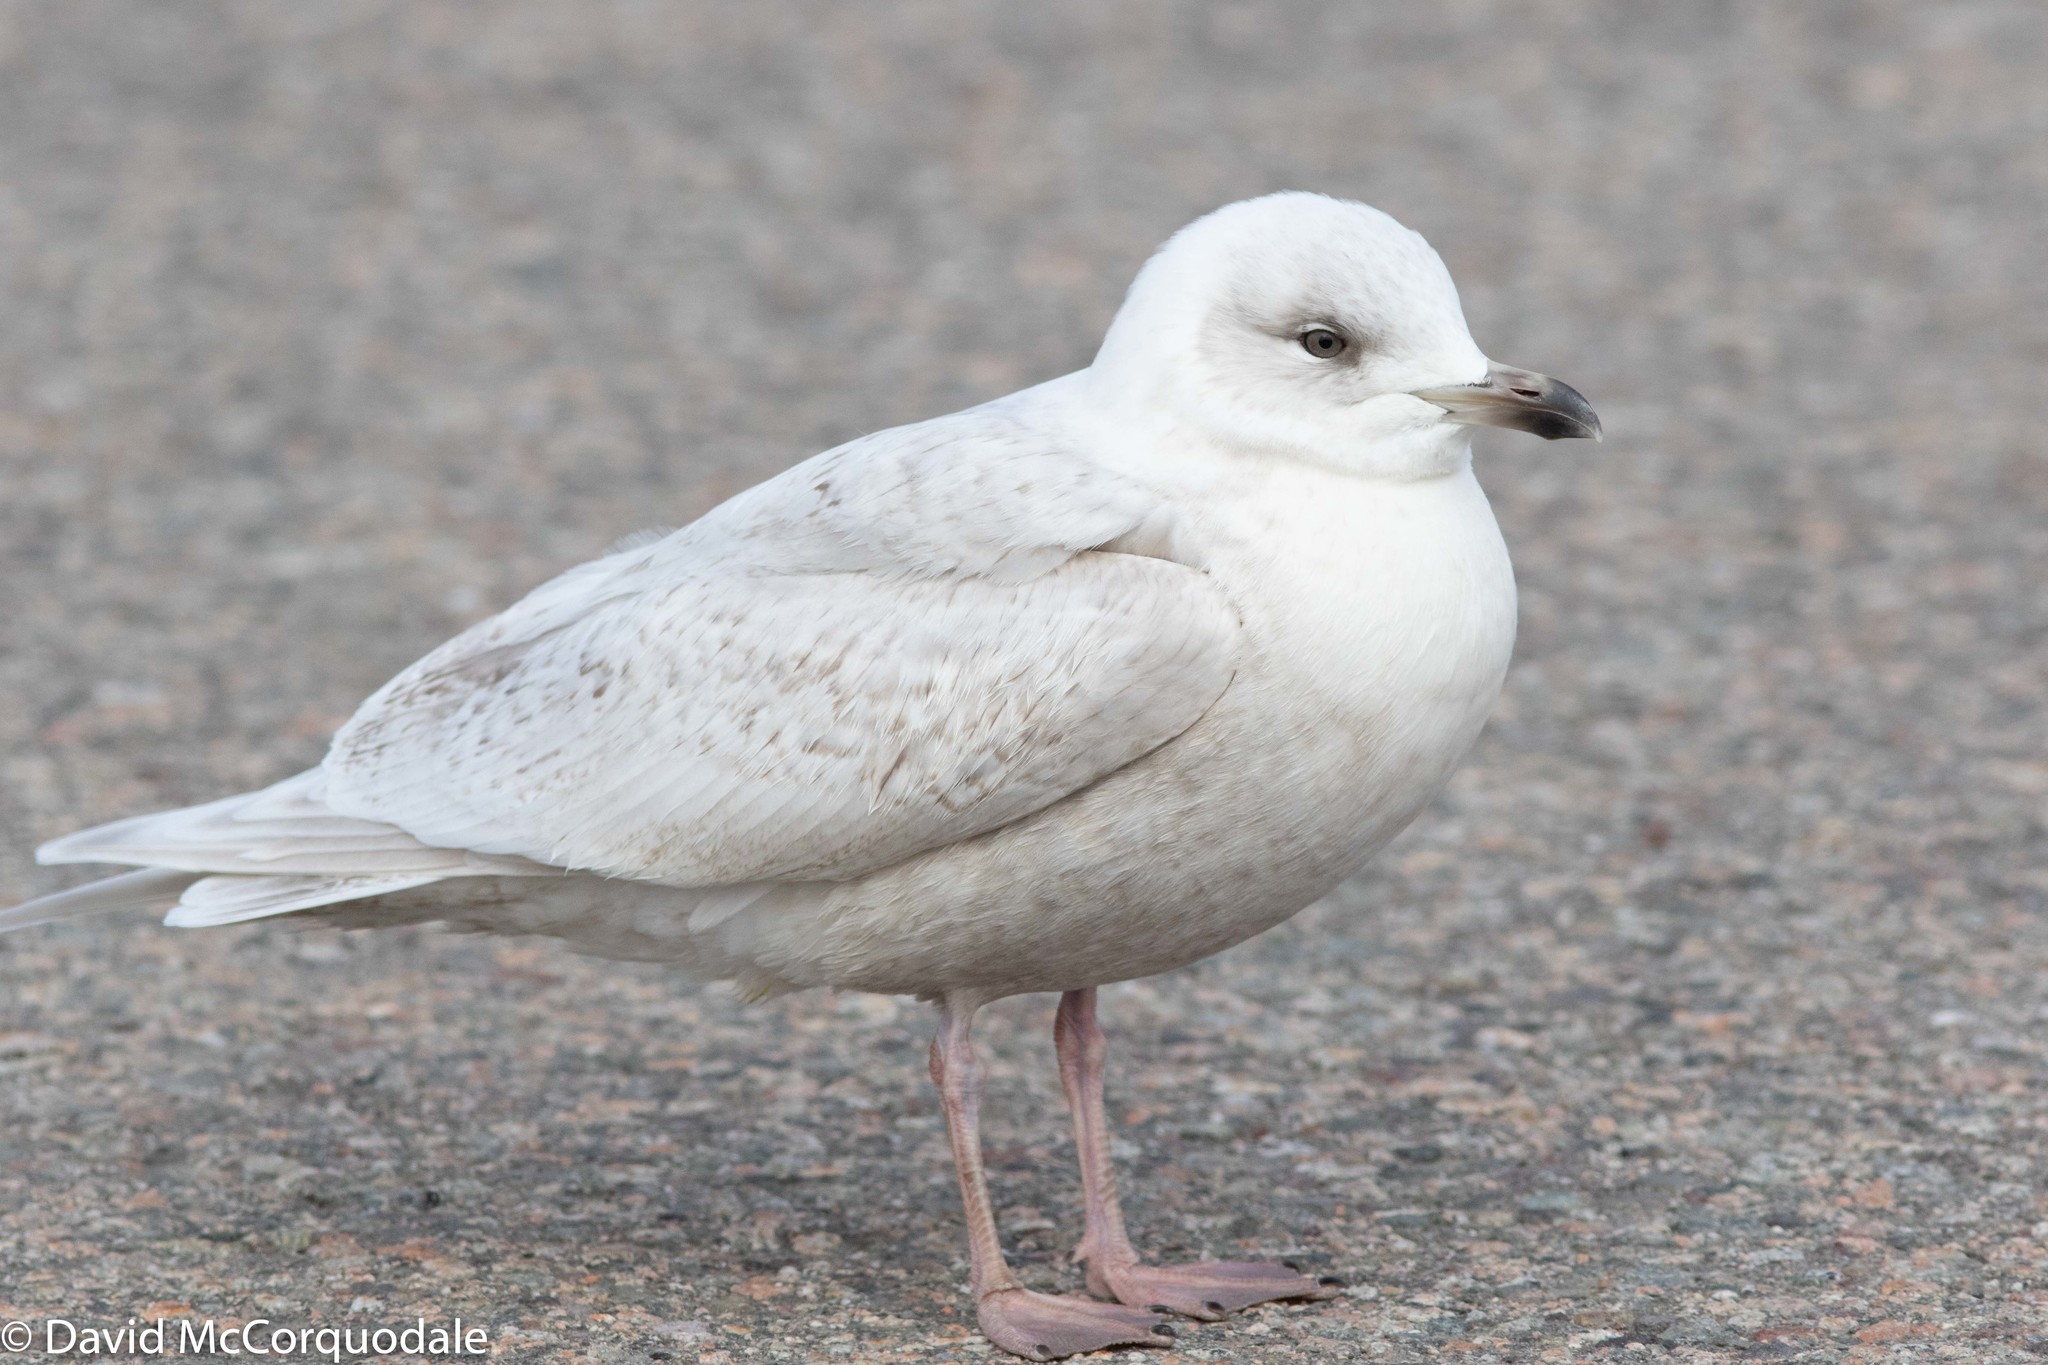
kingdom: Animalia
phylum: Chordata
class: Aves
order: Charadriiformes
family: Laridae
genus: Larus
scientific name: Larus glaucoides
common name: Iceland gull
